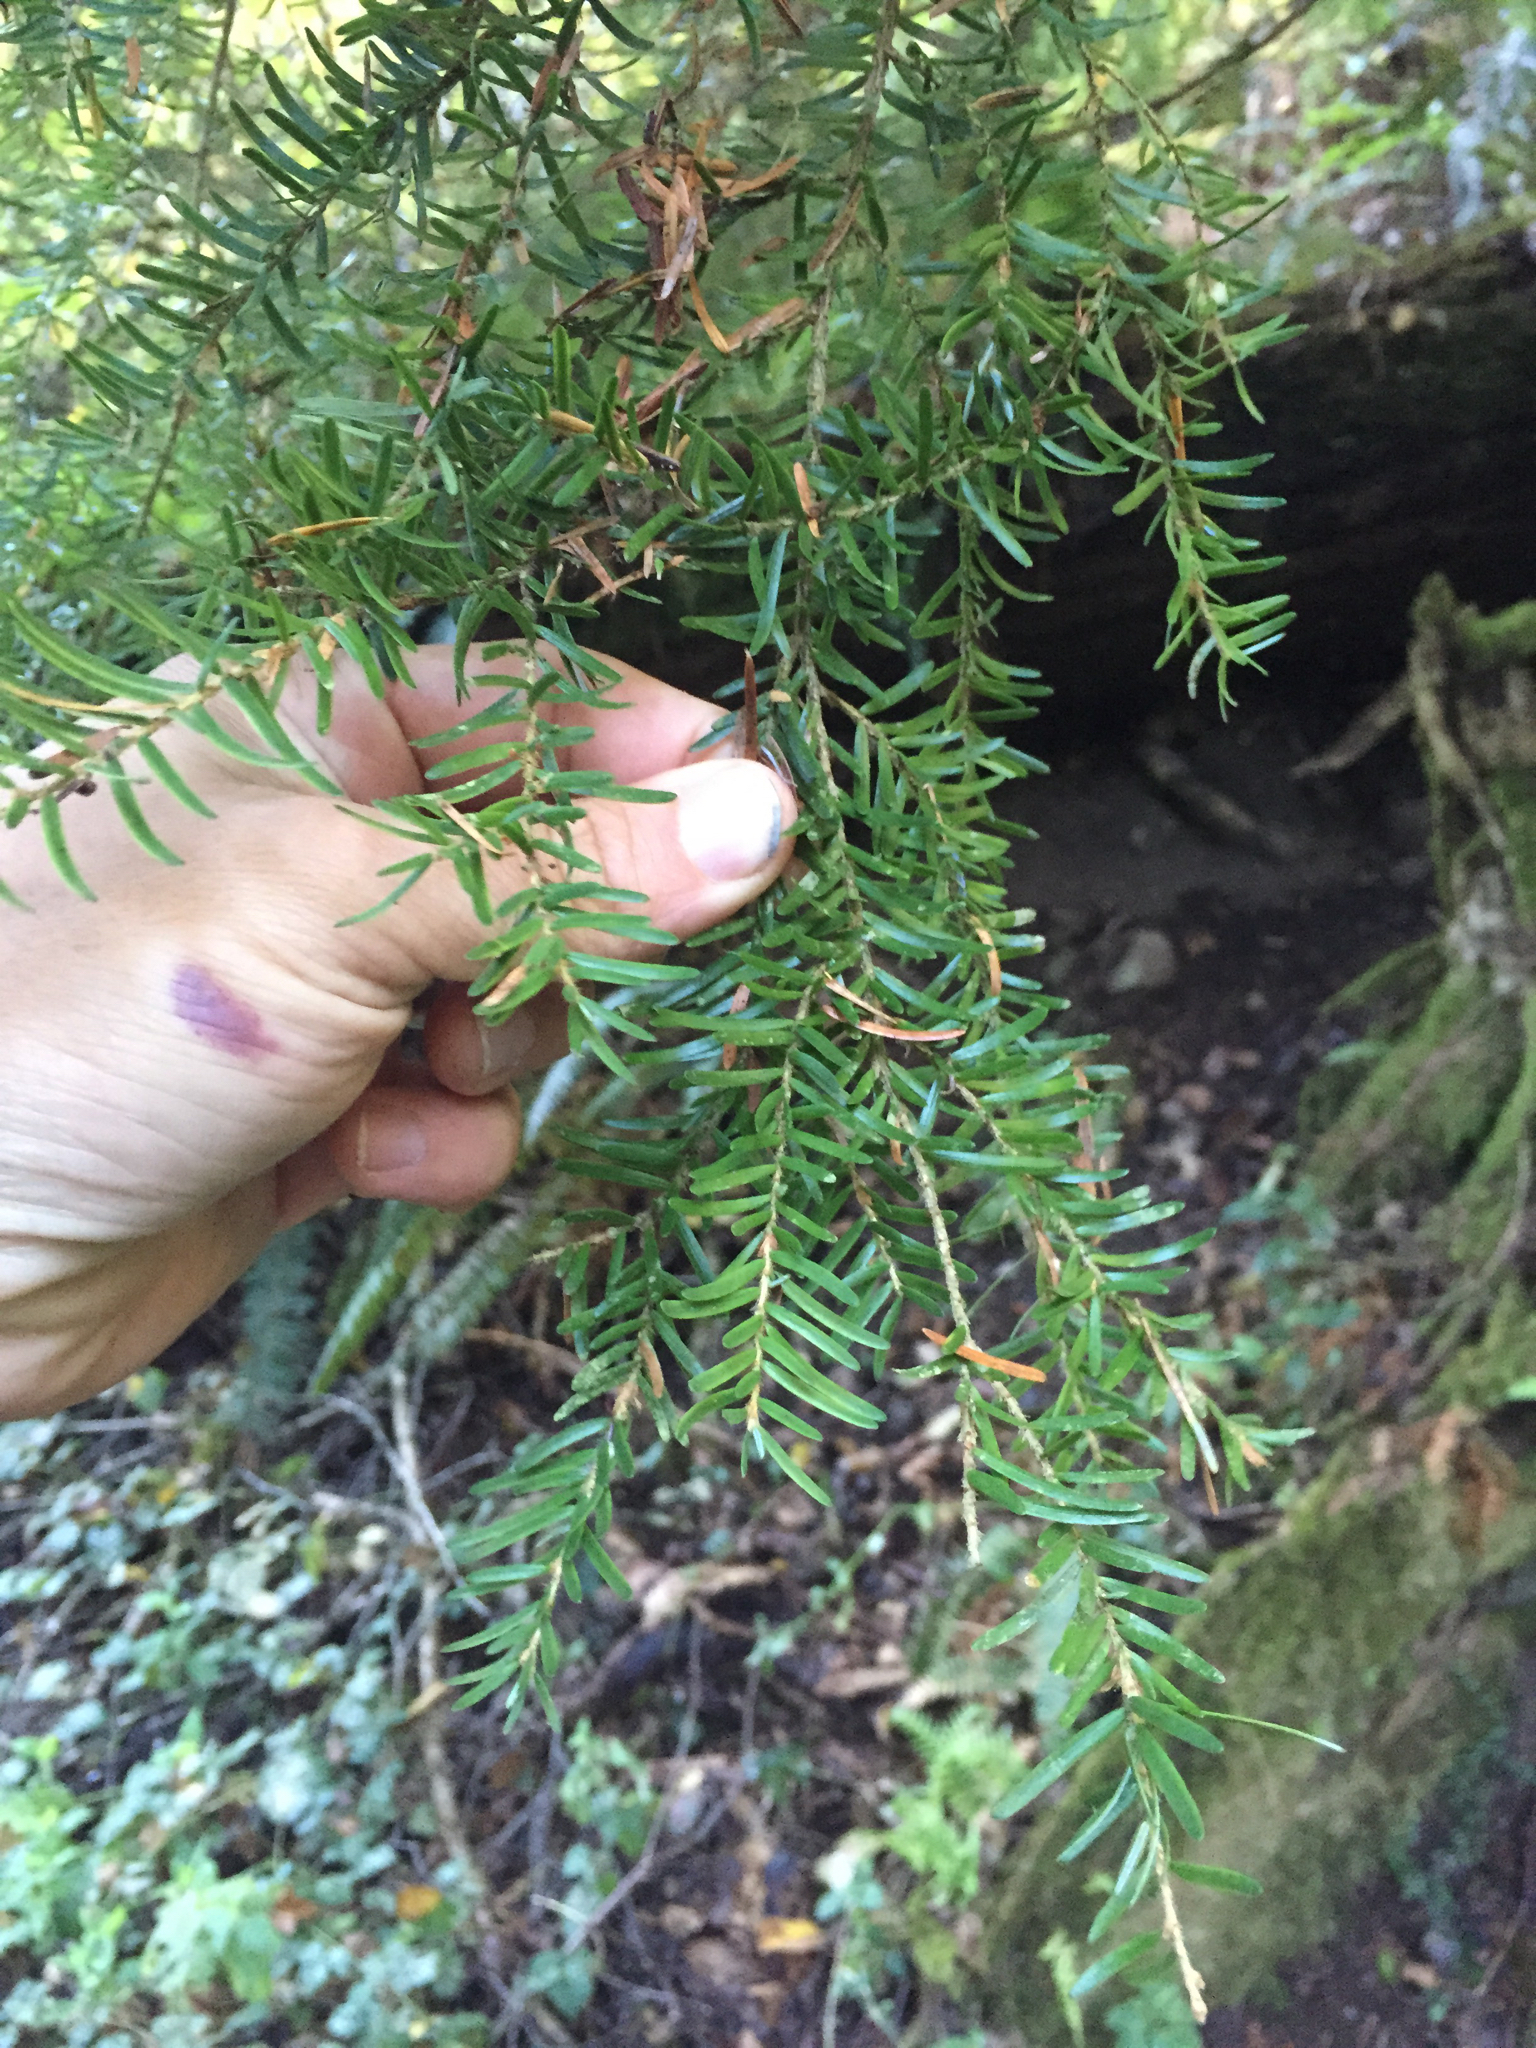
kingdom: Plantae
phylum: Tracheophyta
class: Pinopsida
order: Pinales
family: Pinaceae
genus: Tsuga
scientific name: Tsuga heterophylla
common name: Western hemlock
